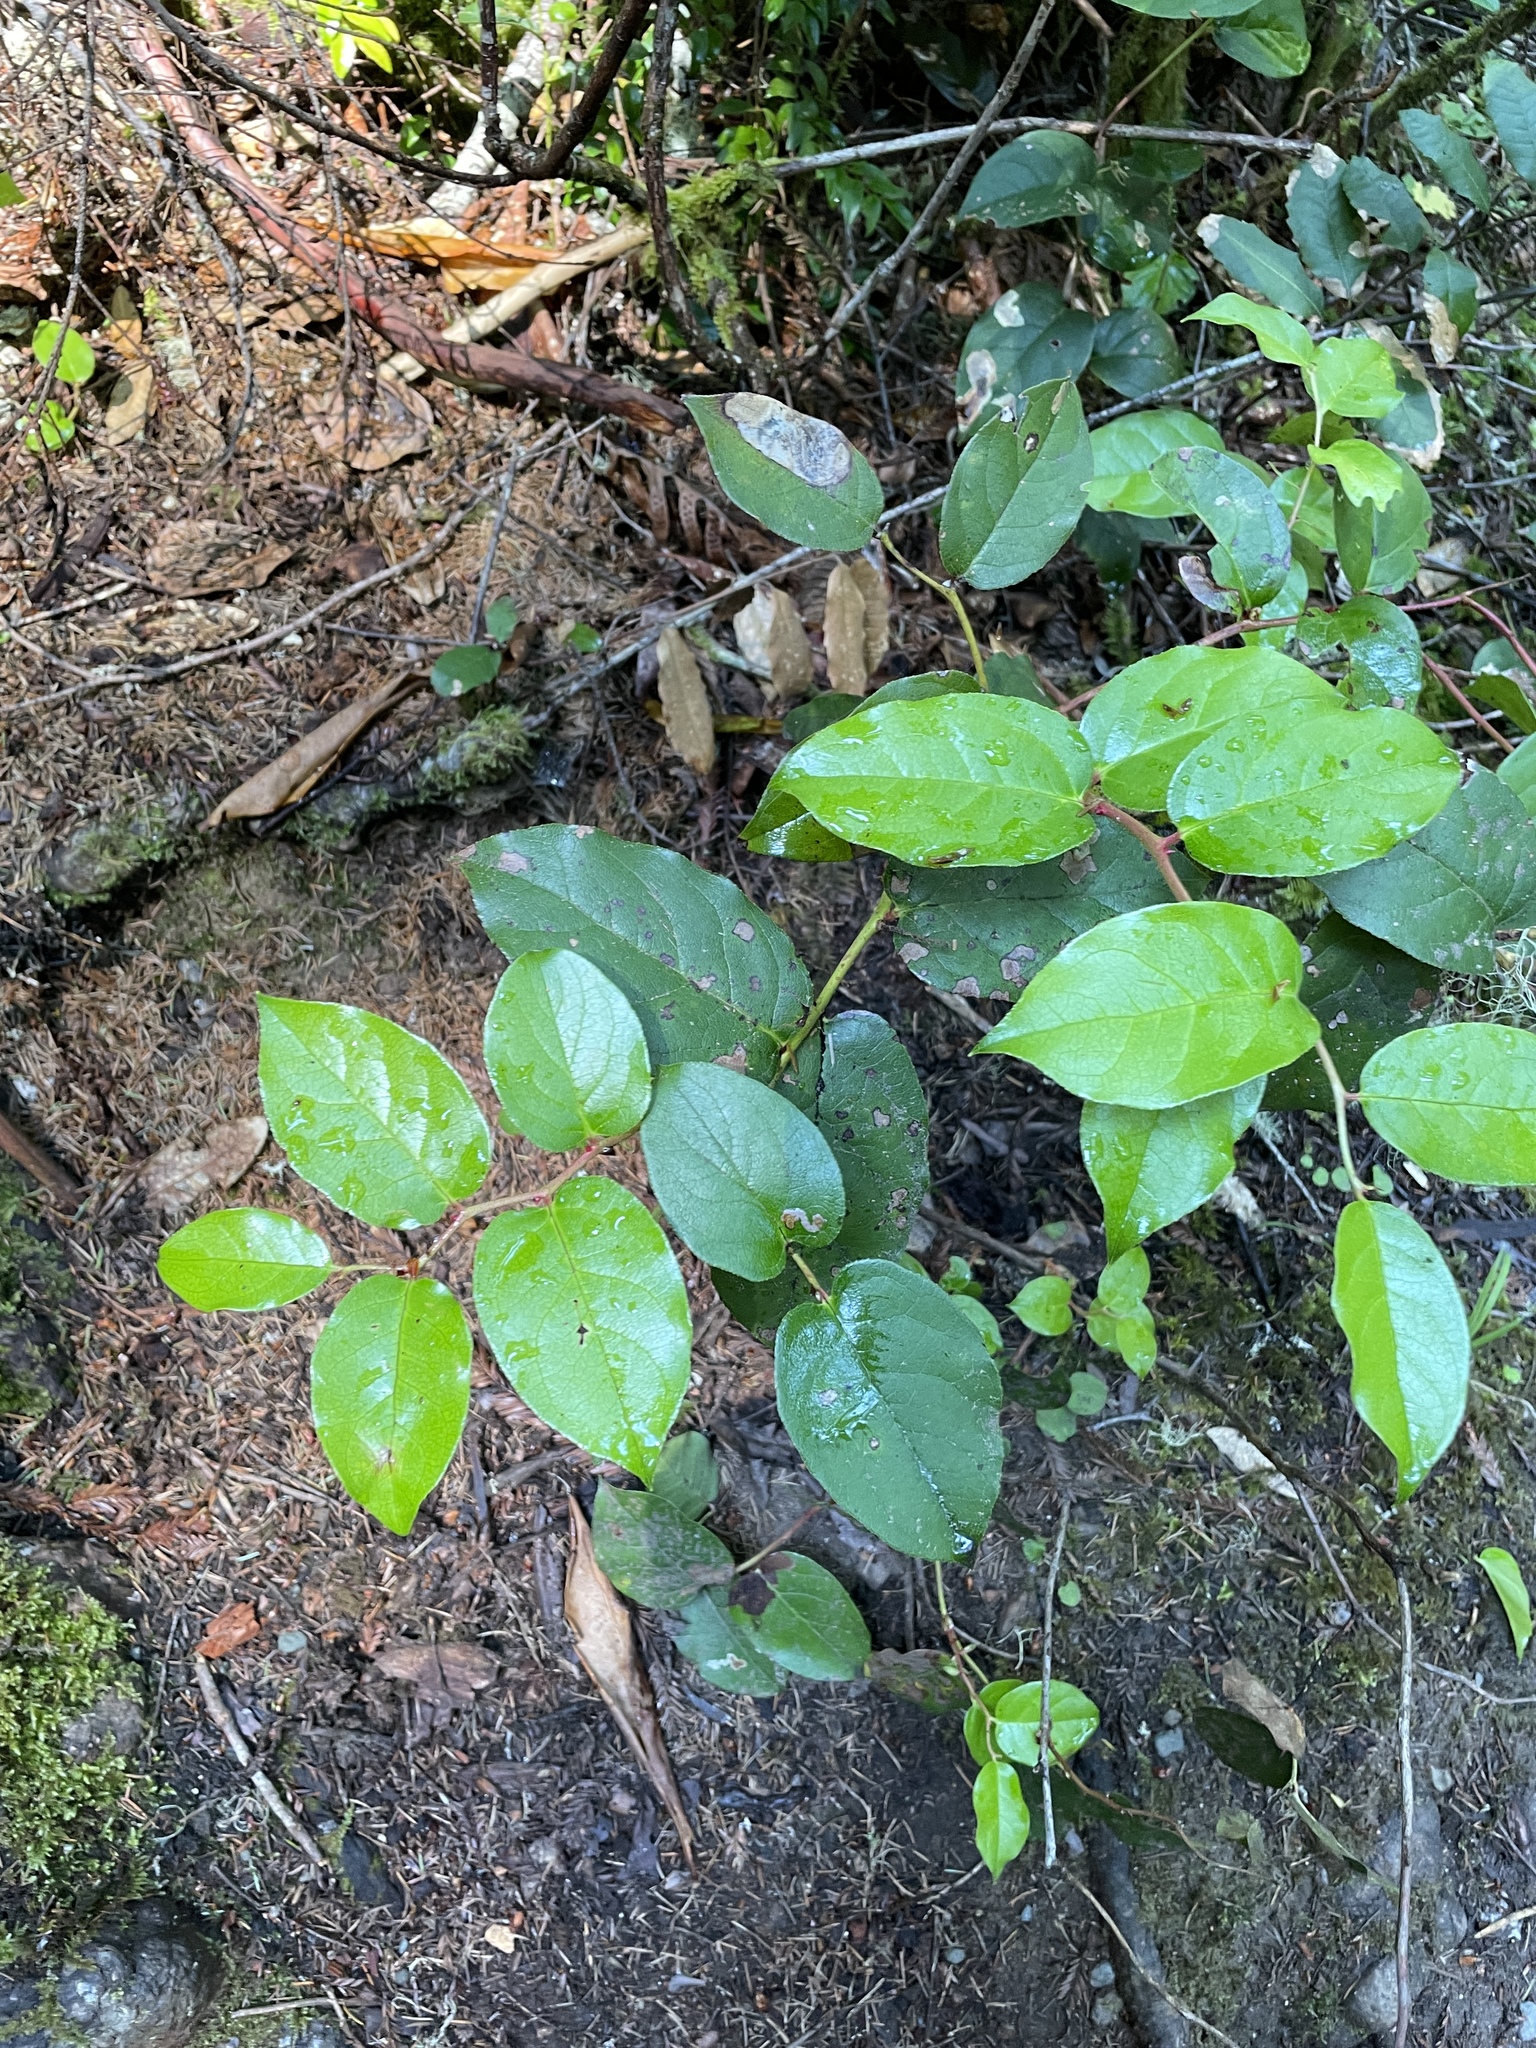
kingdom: Plantae
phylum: Tracheophyta
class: Magnoliopsida
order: Ericales
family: Ericaceae
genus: Gaultheria
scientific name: Gaultheria shallon
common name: Shallon
